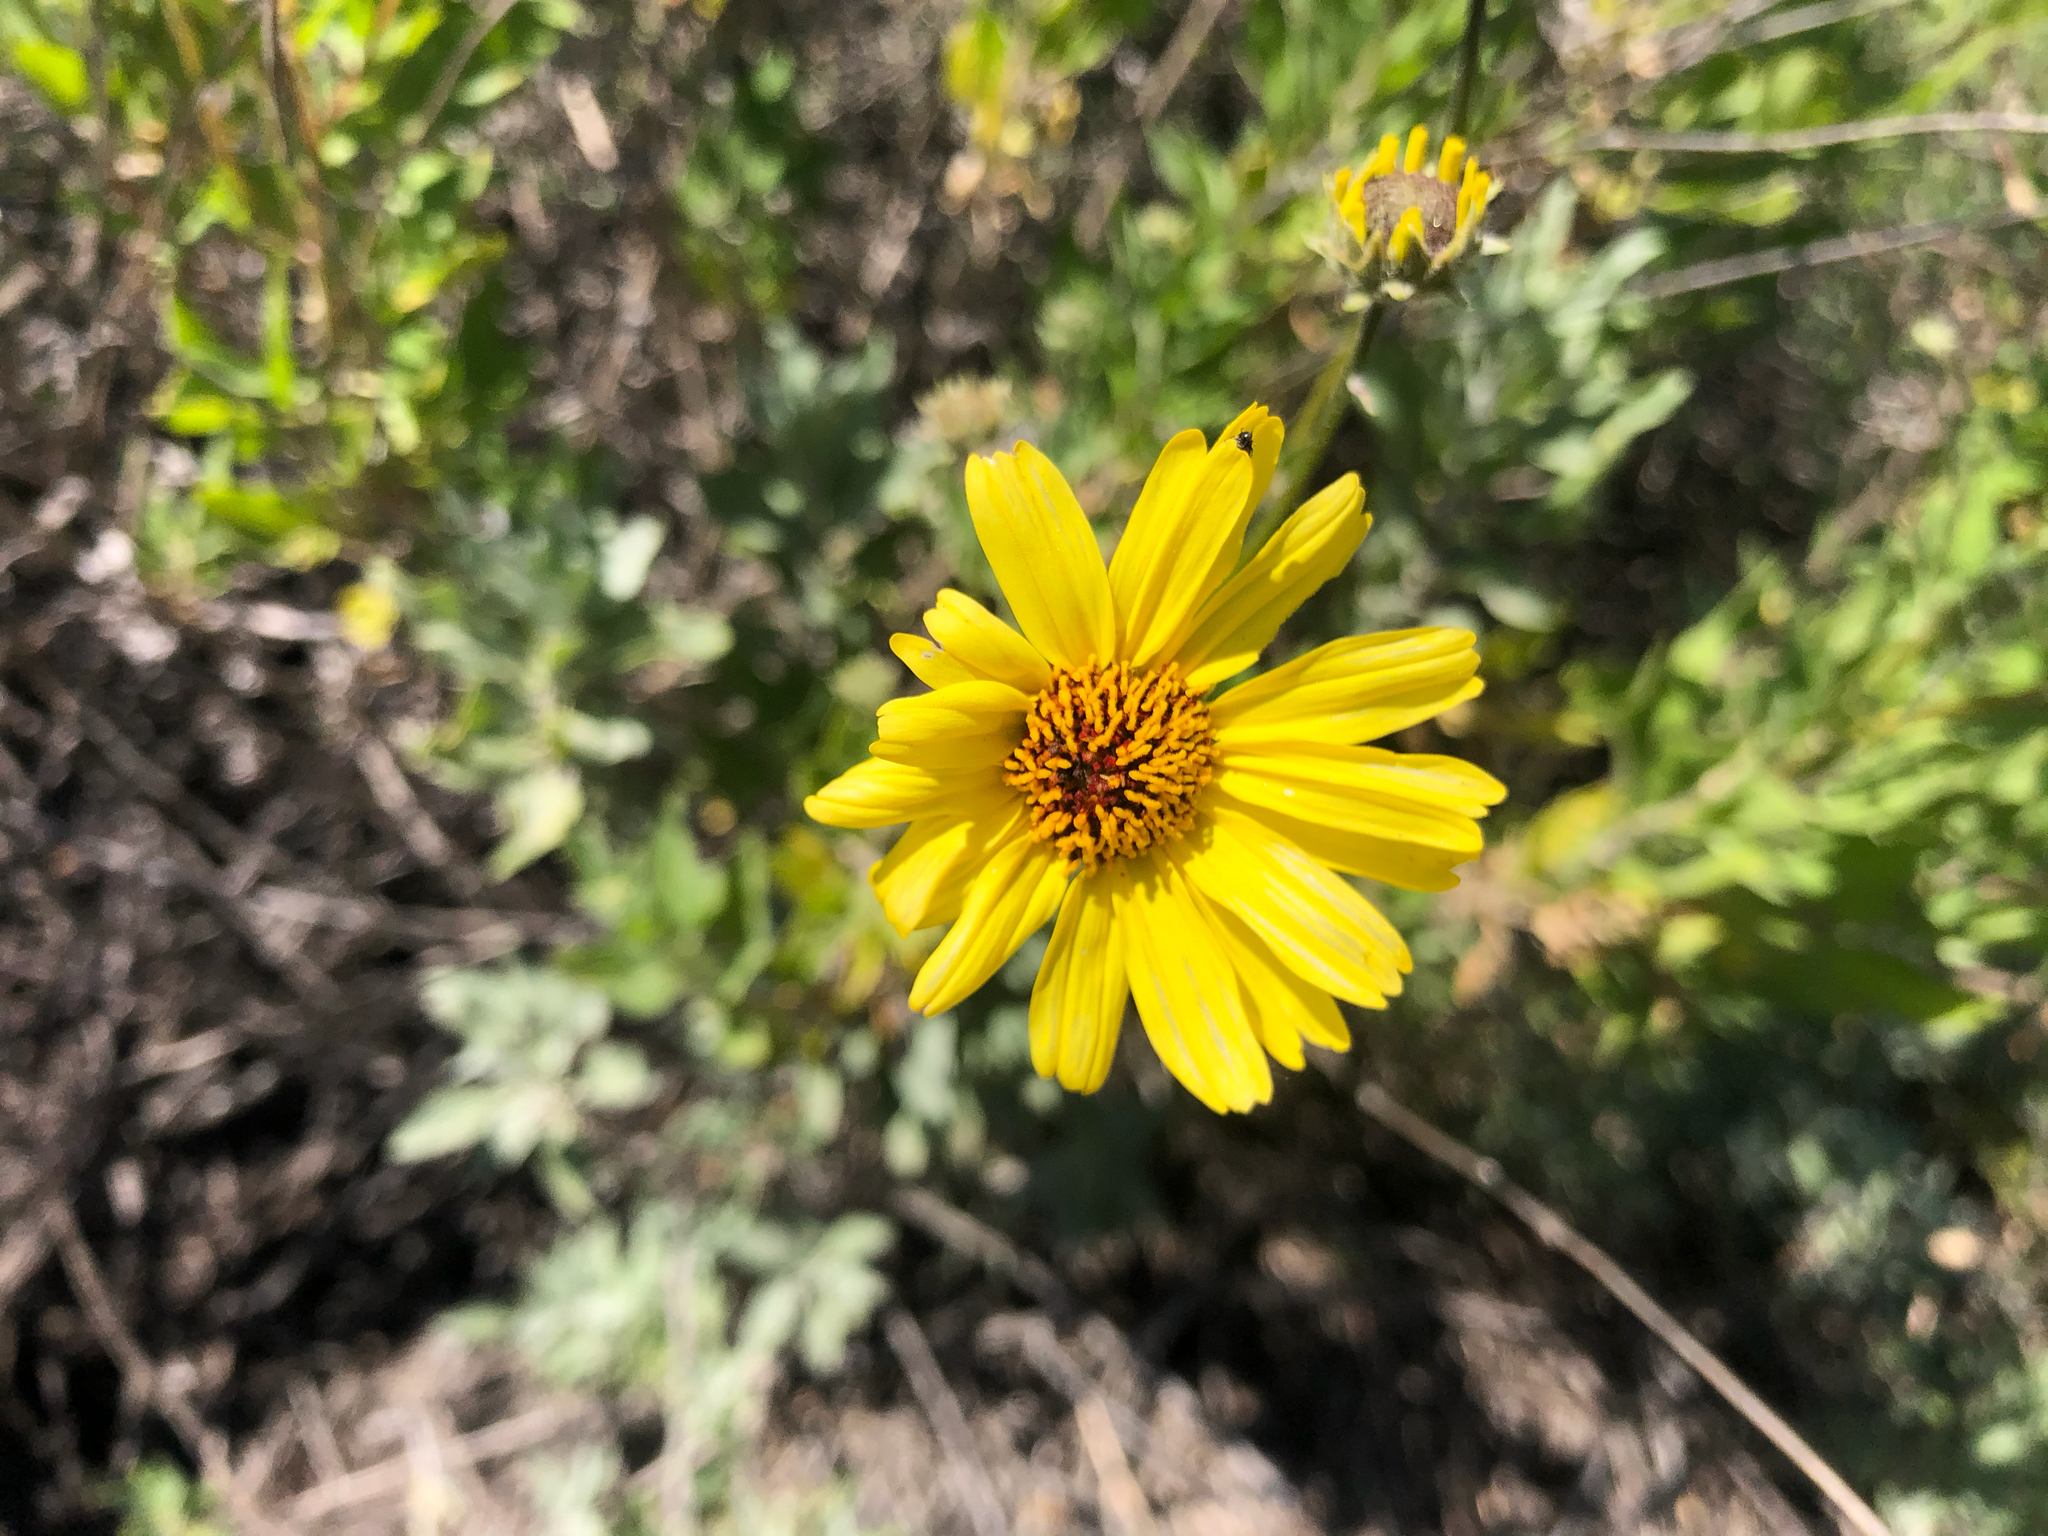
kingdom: Plantae
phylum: Tracheophyta
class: Magnoliopsida
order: Asterales
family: Asteraceae
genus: Encelia
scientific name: Encelia californica
